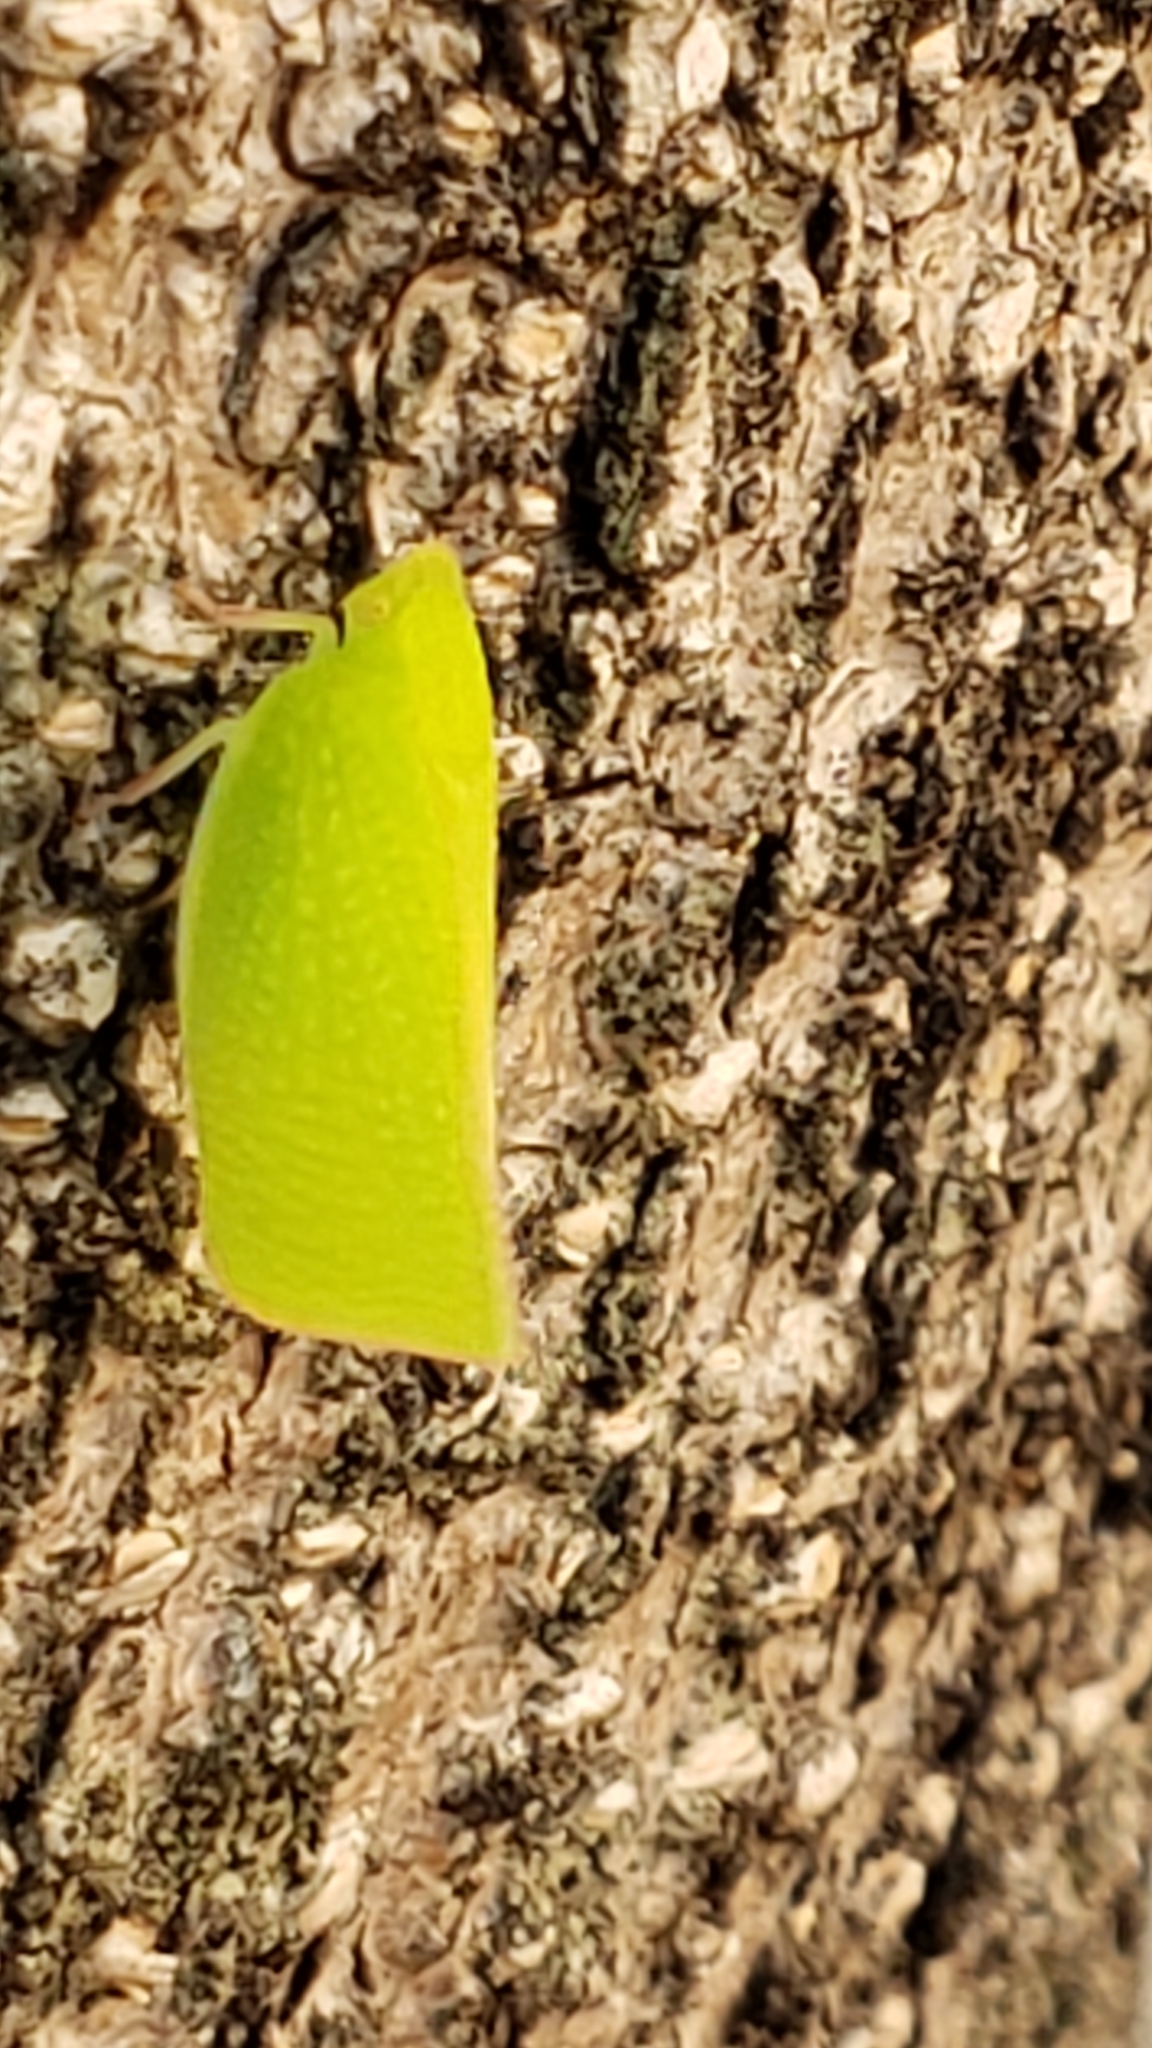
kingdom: Animalia
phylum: Arthropoda
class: Insecta
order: Hemiptera
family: Flatidae
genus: Siphanta
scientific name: Siphanta acuta
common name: Torpedo bug
